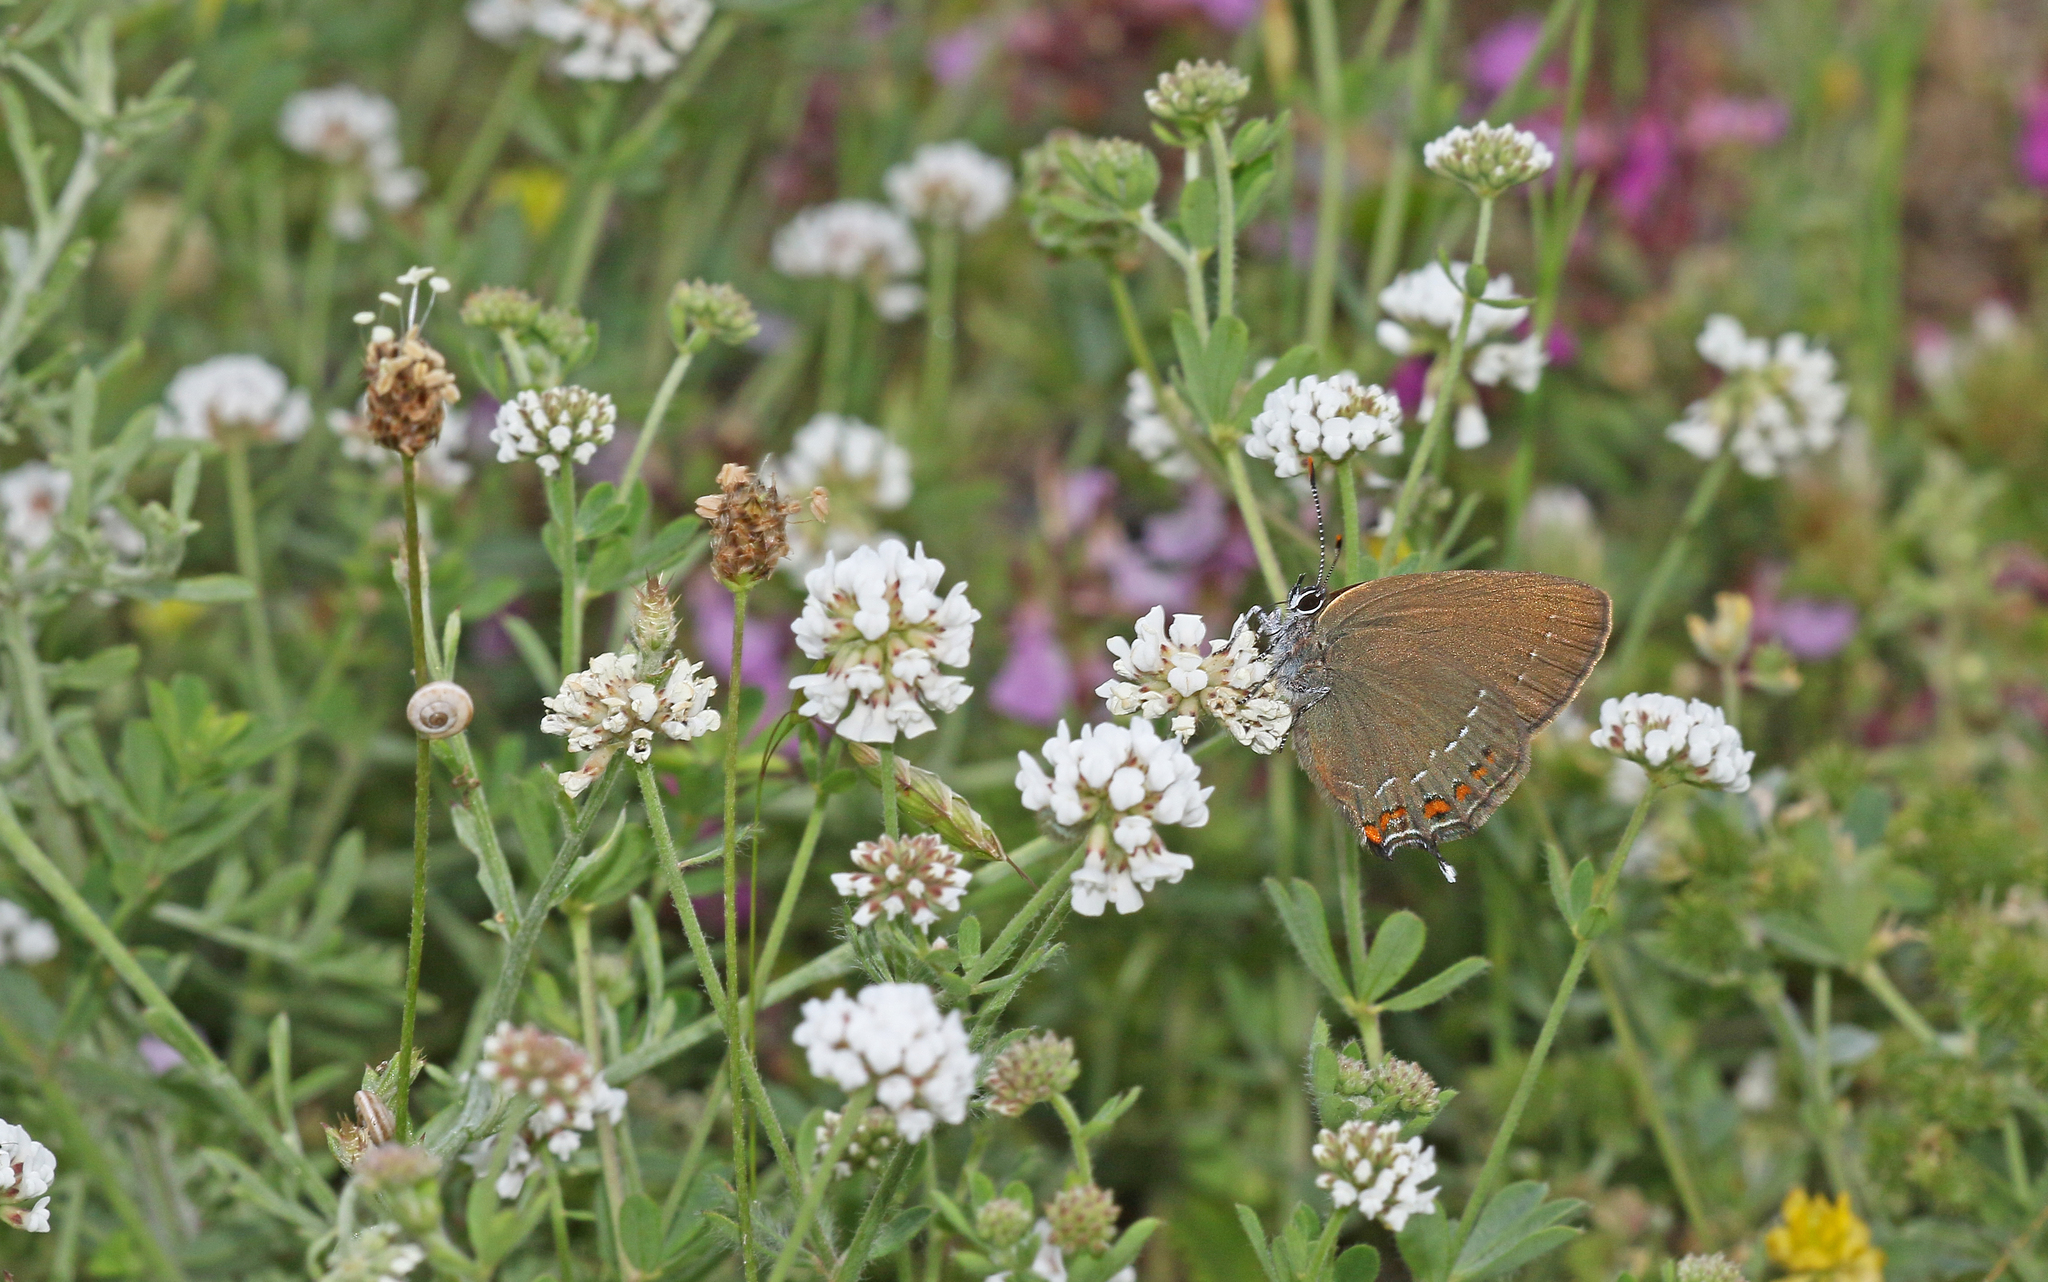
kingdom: Animalia
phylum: Arthropoda
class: Insecta
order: Lepidoptera
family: Lycaenidae
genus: Nordmannia
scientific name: Nordmannia ilicis
